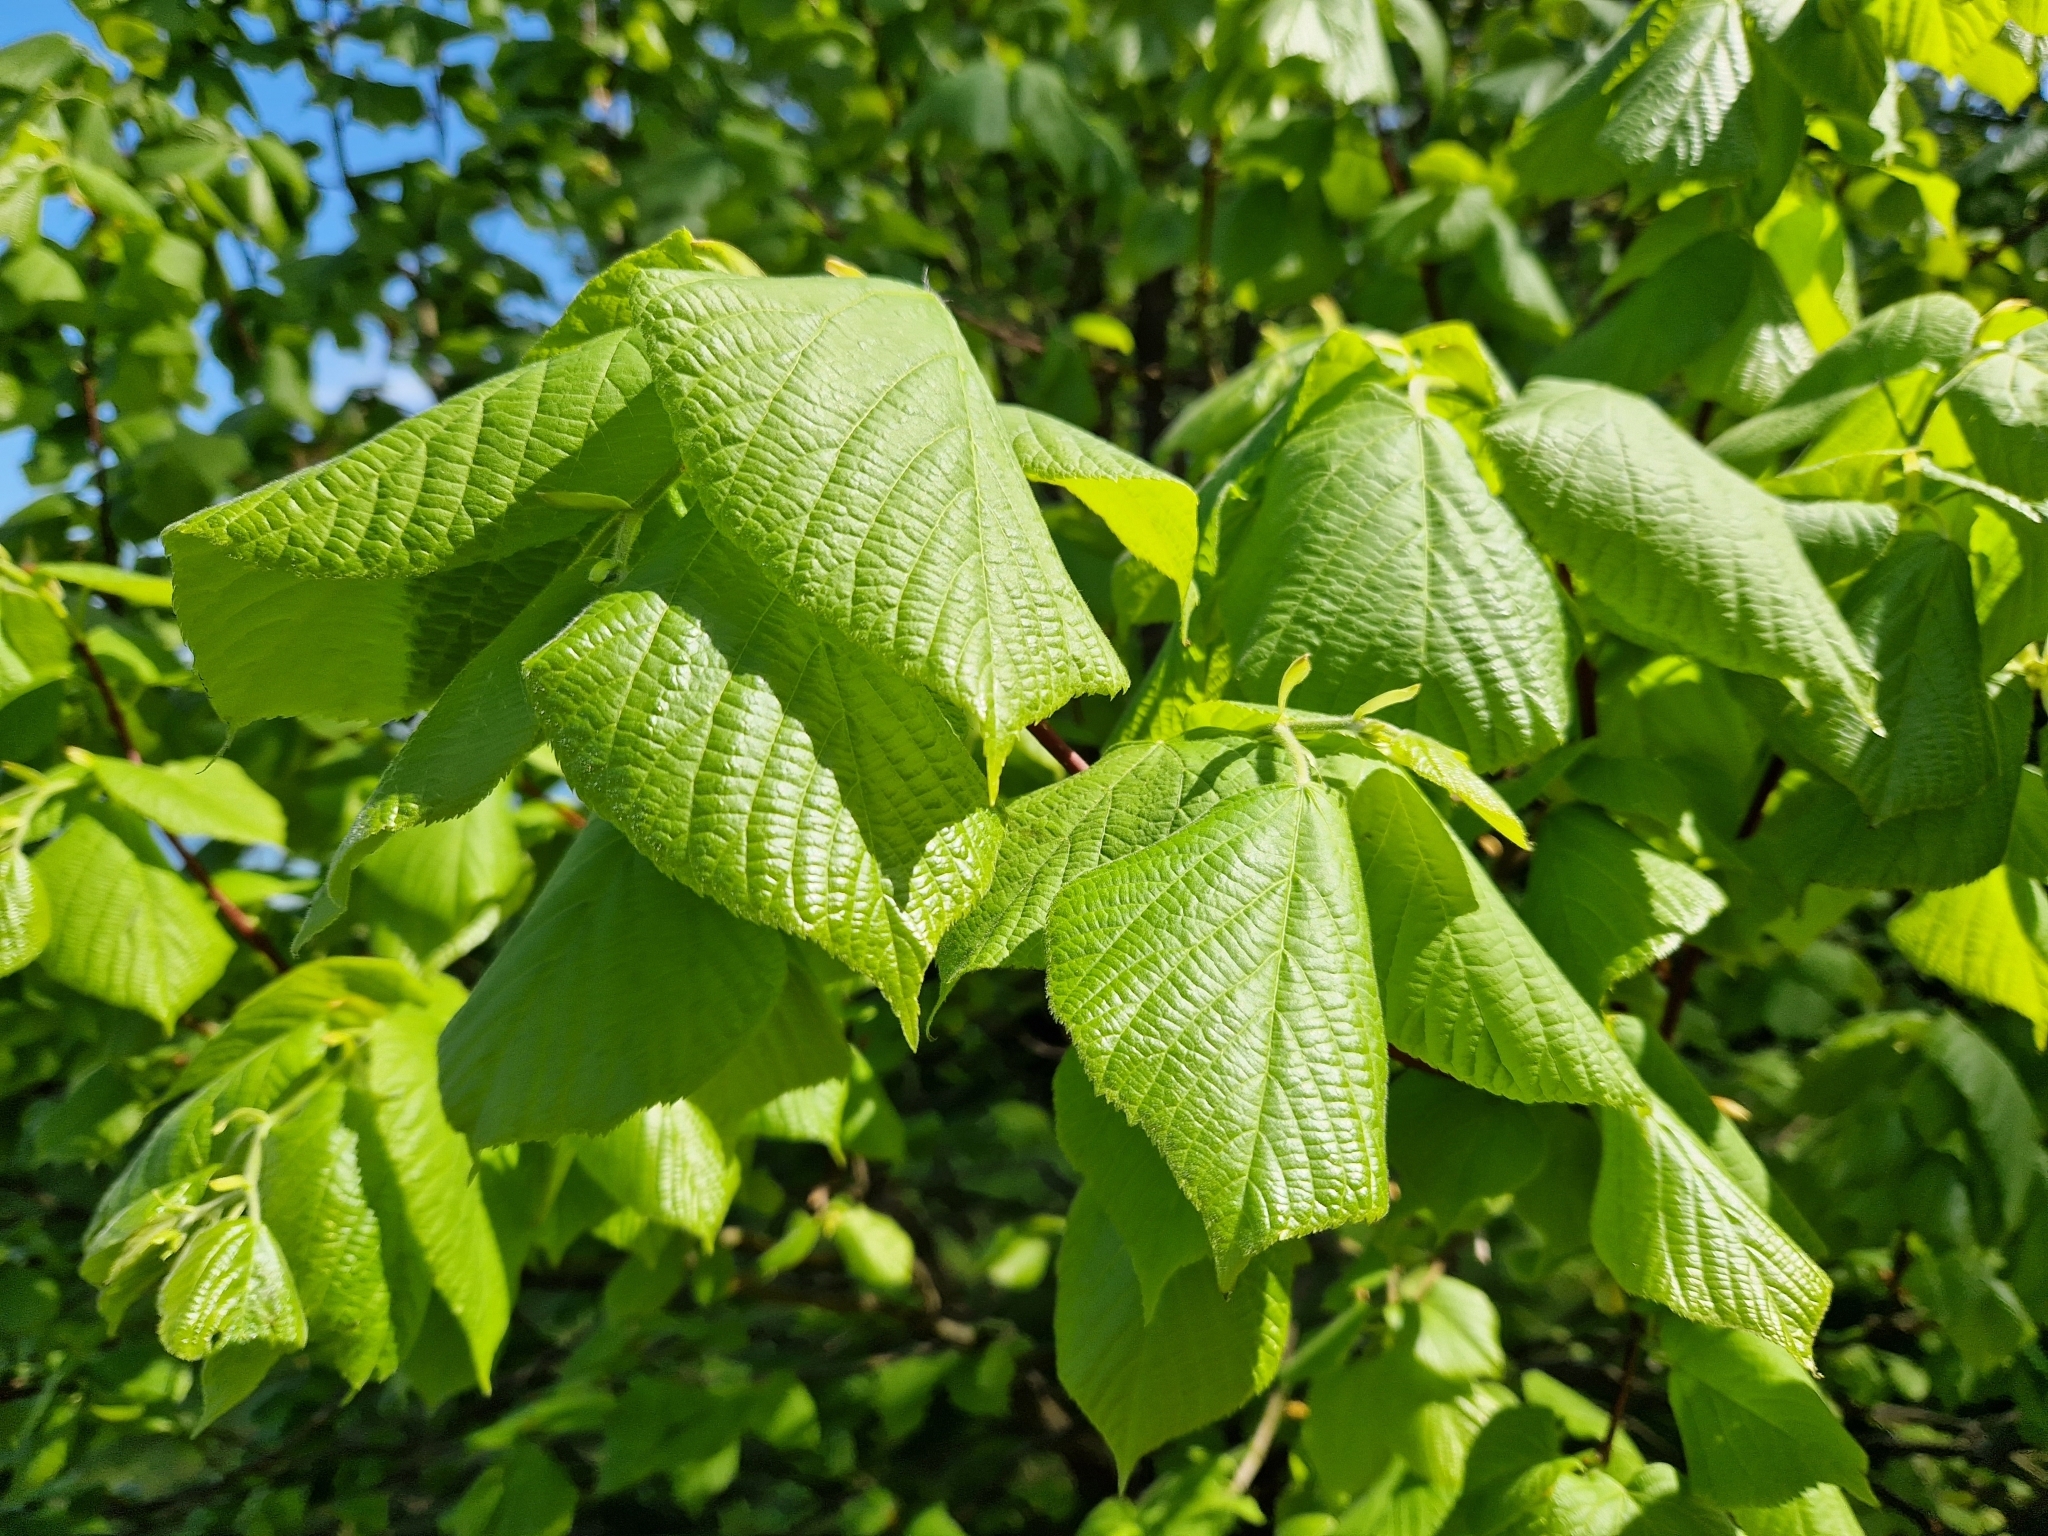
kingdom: Plantae
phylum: Tracheophyta
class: Magnoliopsida
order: Malvales
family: Malvaceae
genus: Tilia
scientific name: Tilia platyphyllos
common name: Large-leaved lime
